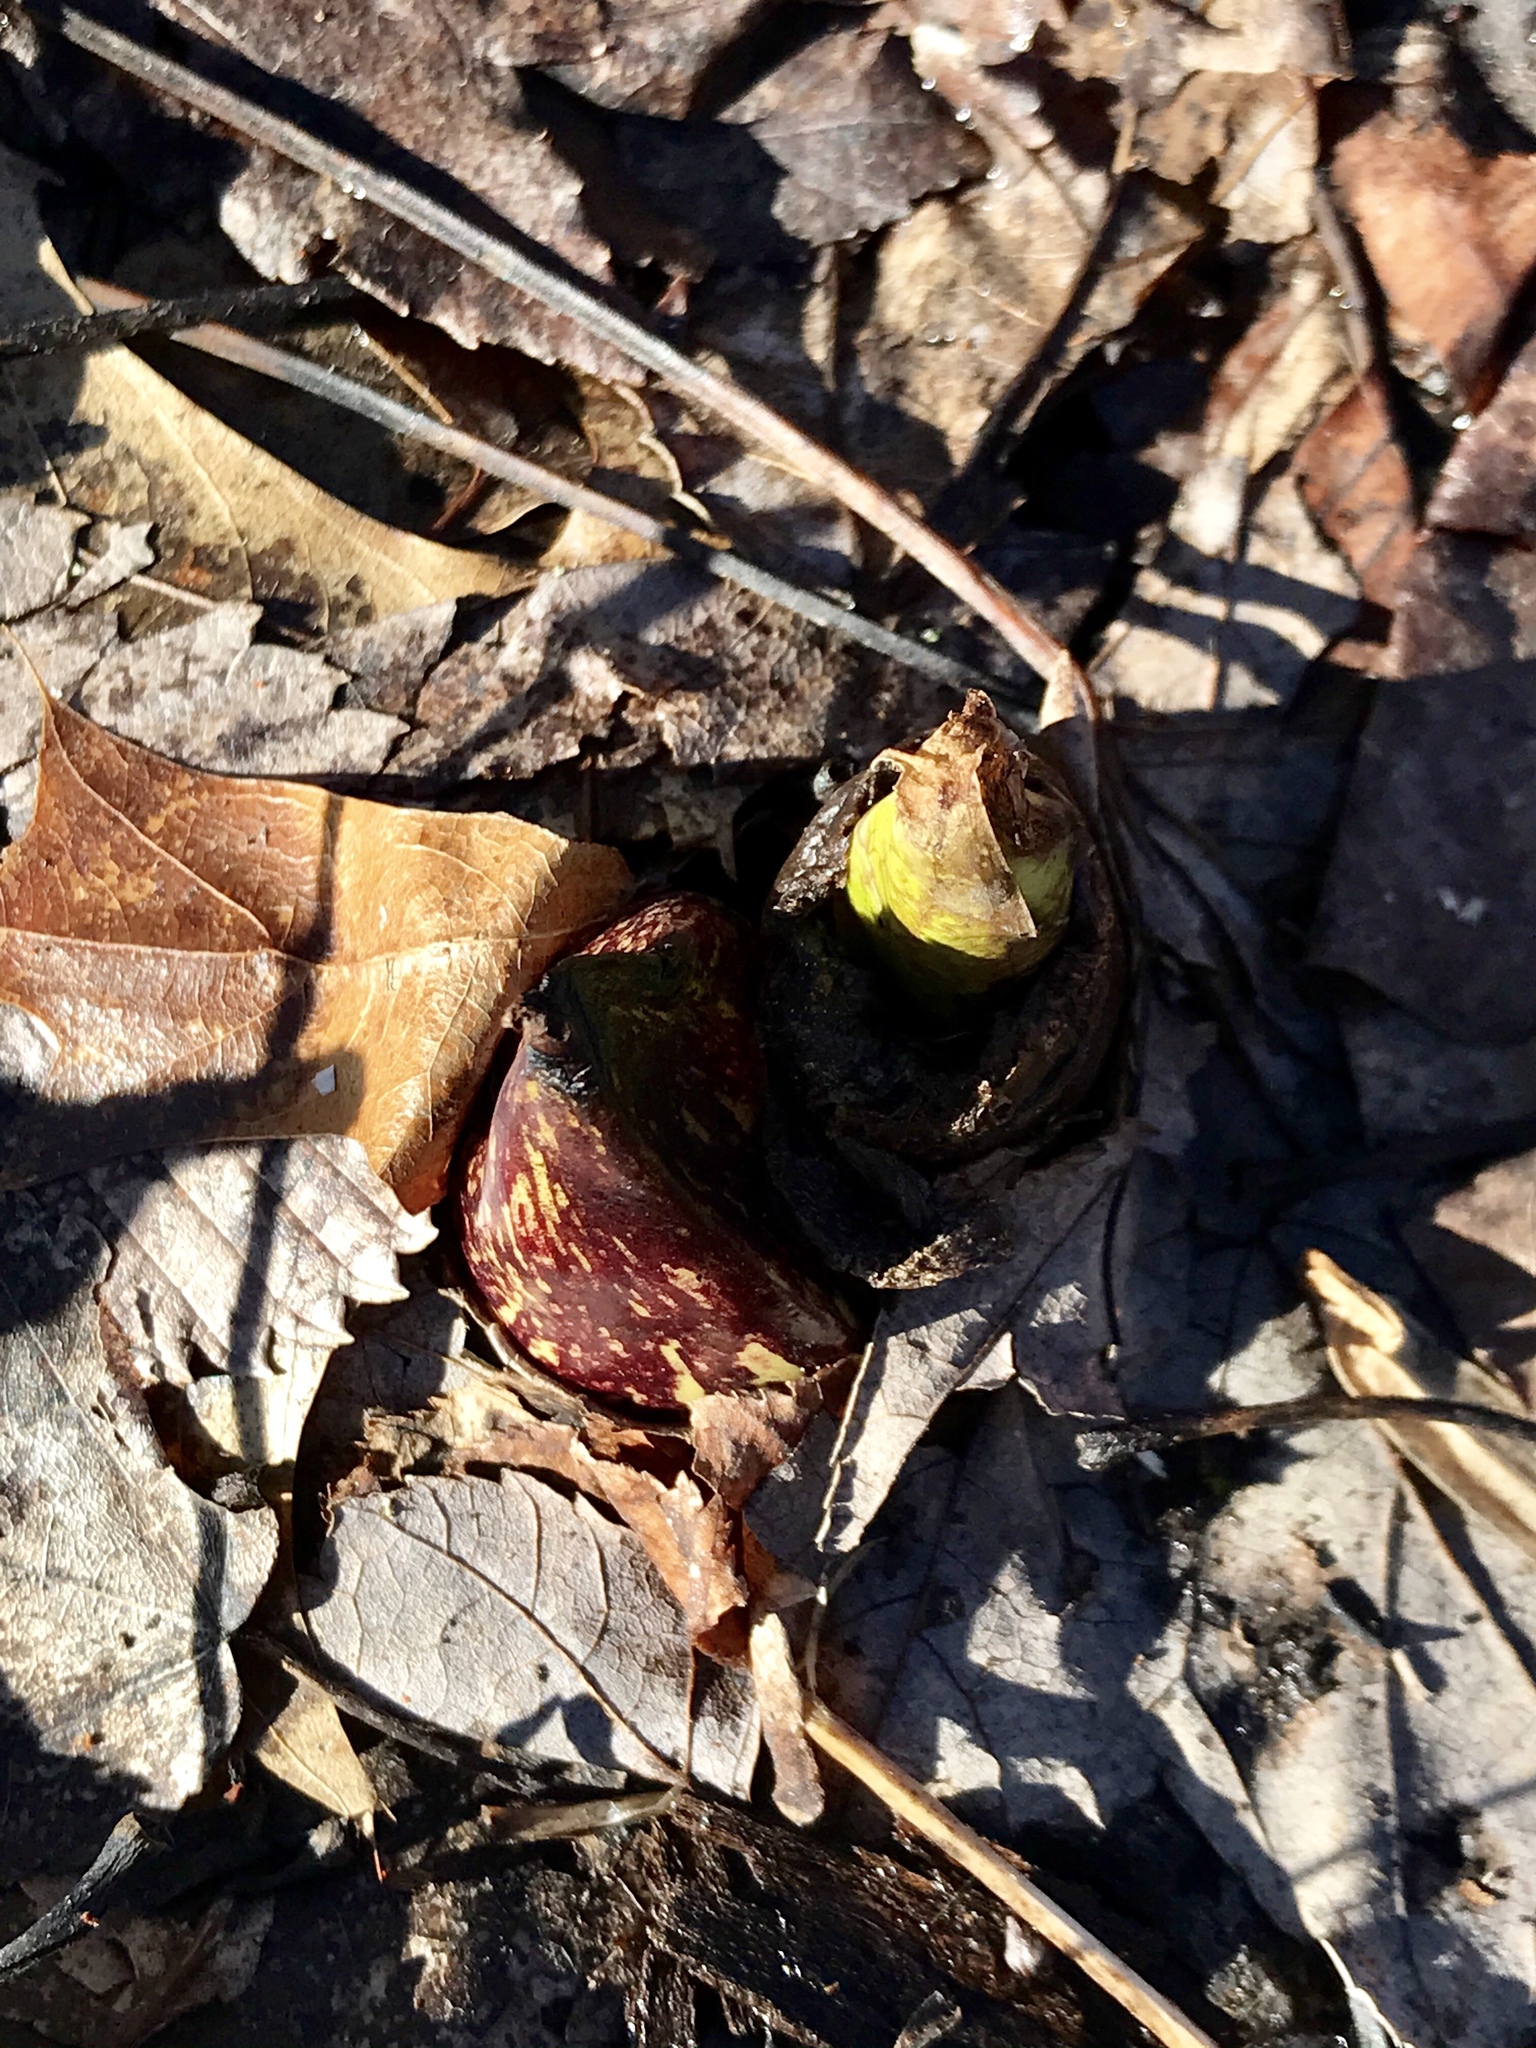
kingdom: Plantae
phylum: Tracheophyta
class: Liliopsida
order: Alismatales
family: Araceae
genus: Symplocarpus
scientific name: Symplocarpus foetidus
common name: Eastern skunk cabbage
